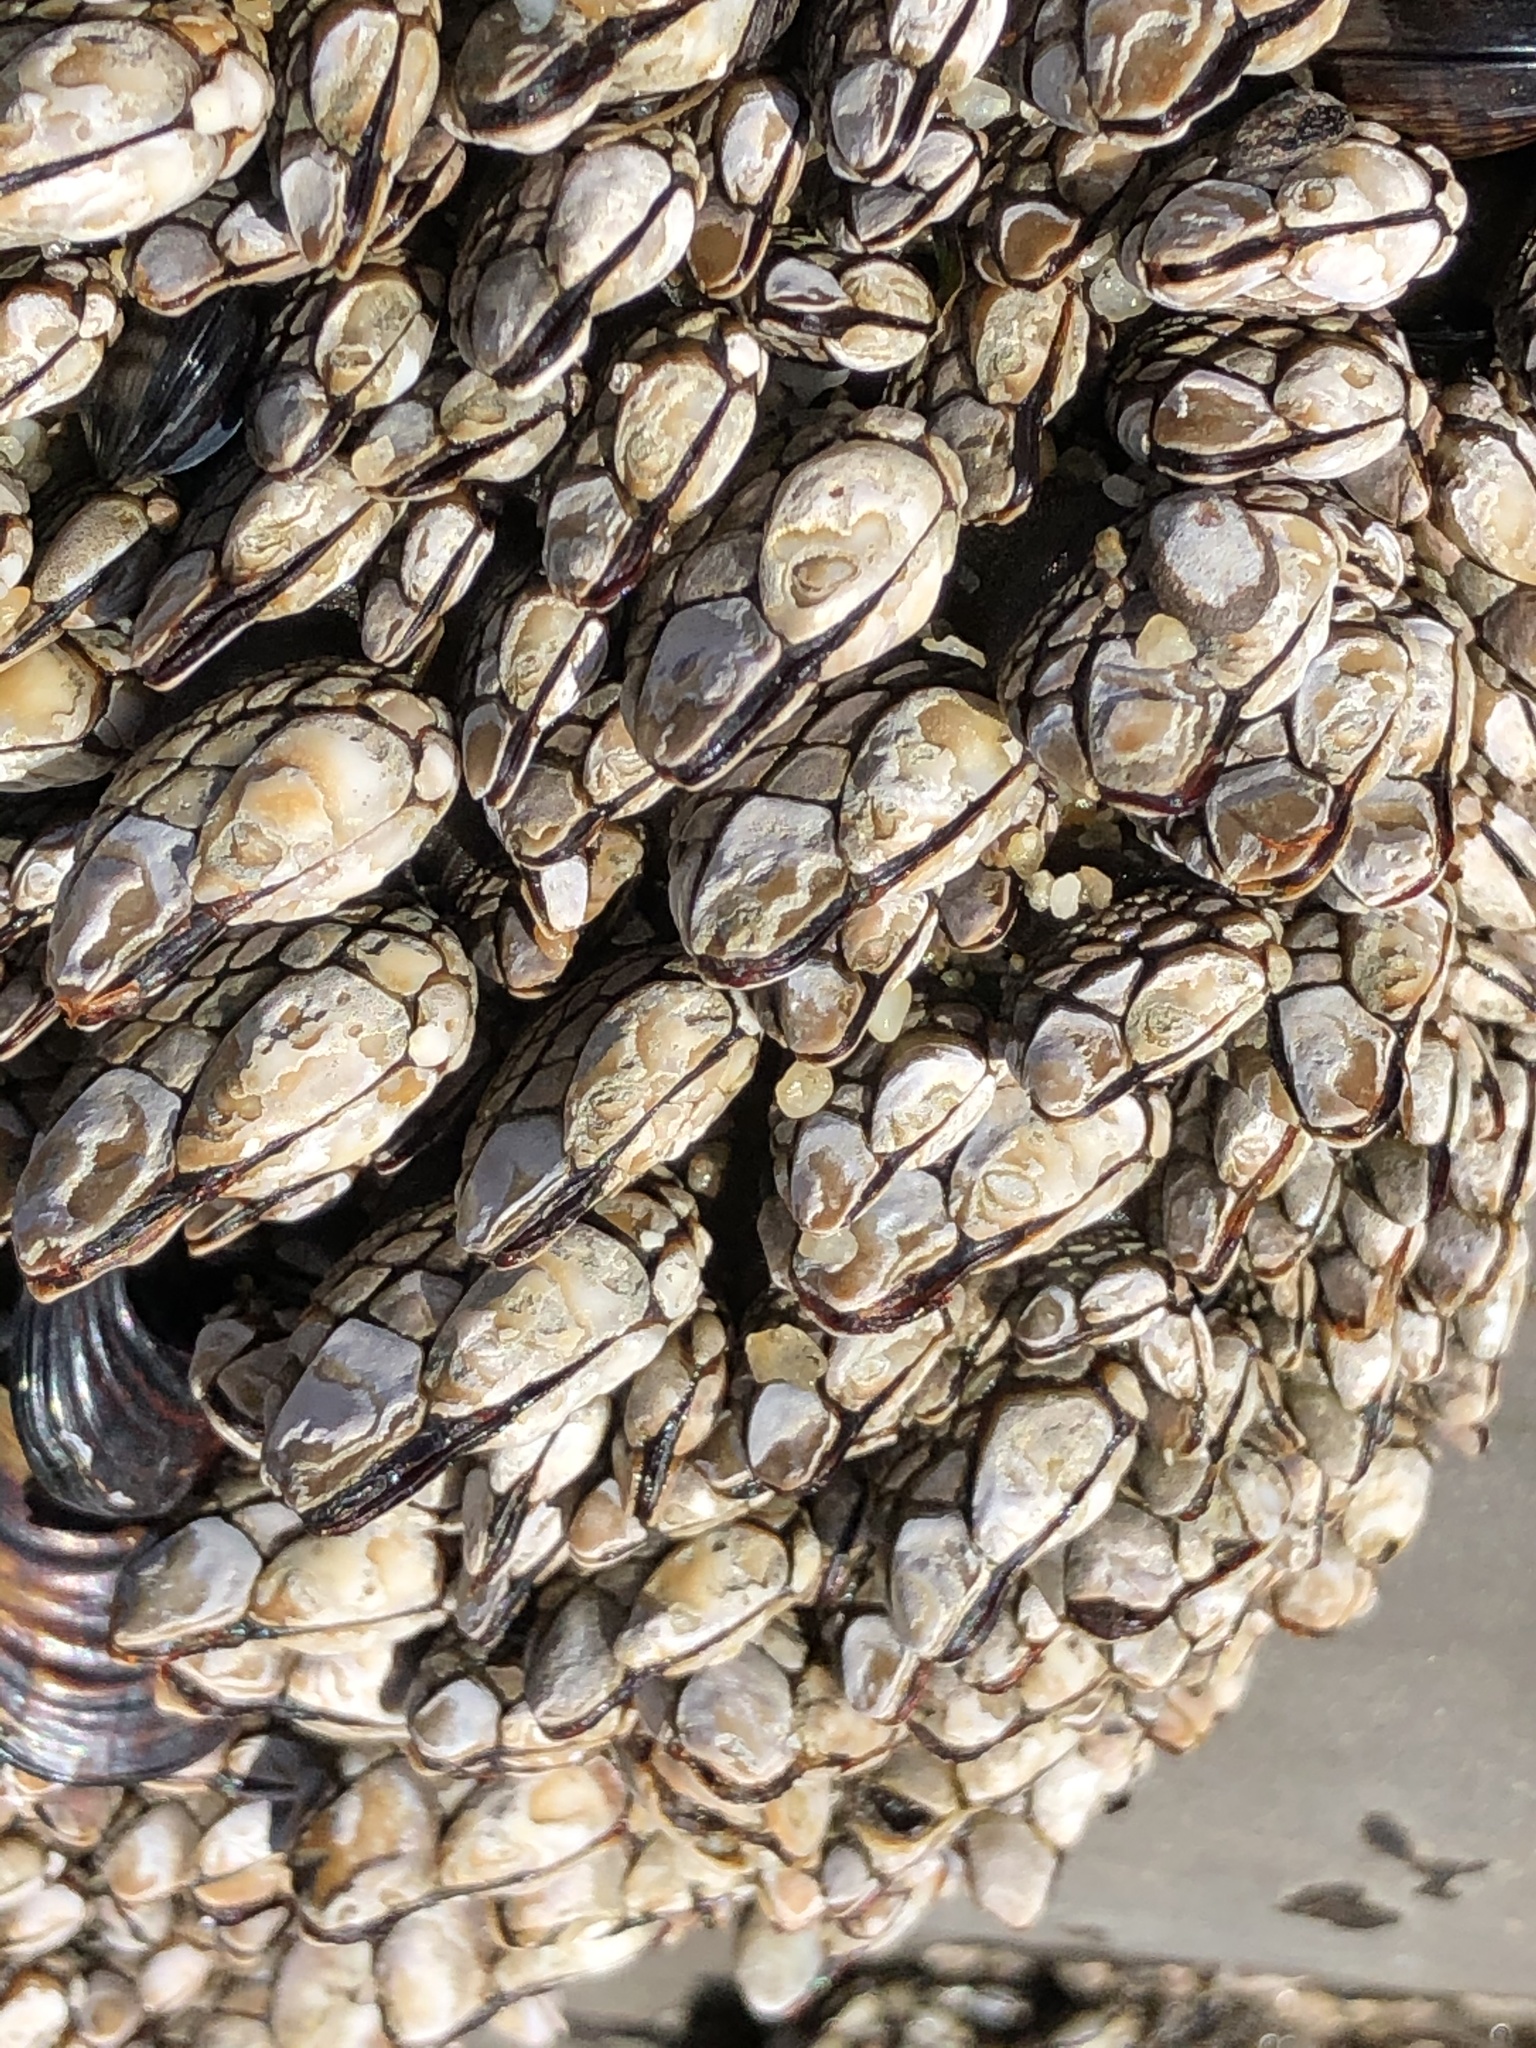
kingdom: Animalia
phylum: Arthropoda
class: Maxillopoda
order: Pedunculata
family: Pollicipedidae
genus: Pollicipes
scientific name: Pollicipes polymerus
